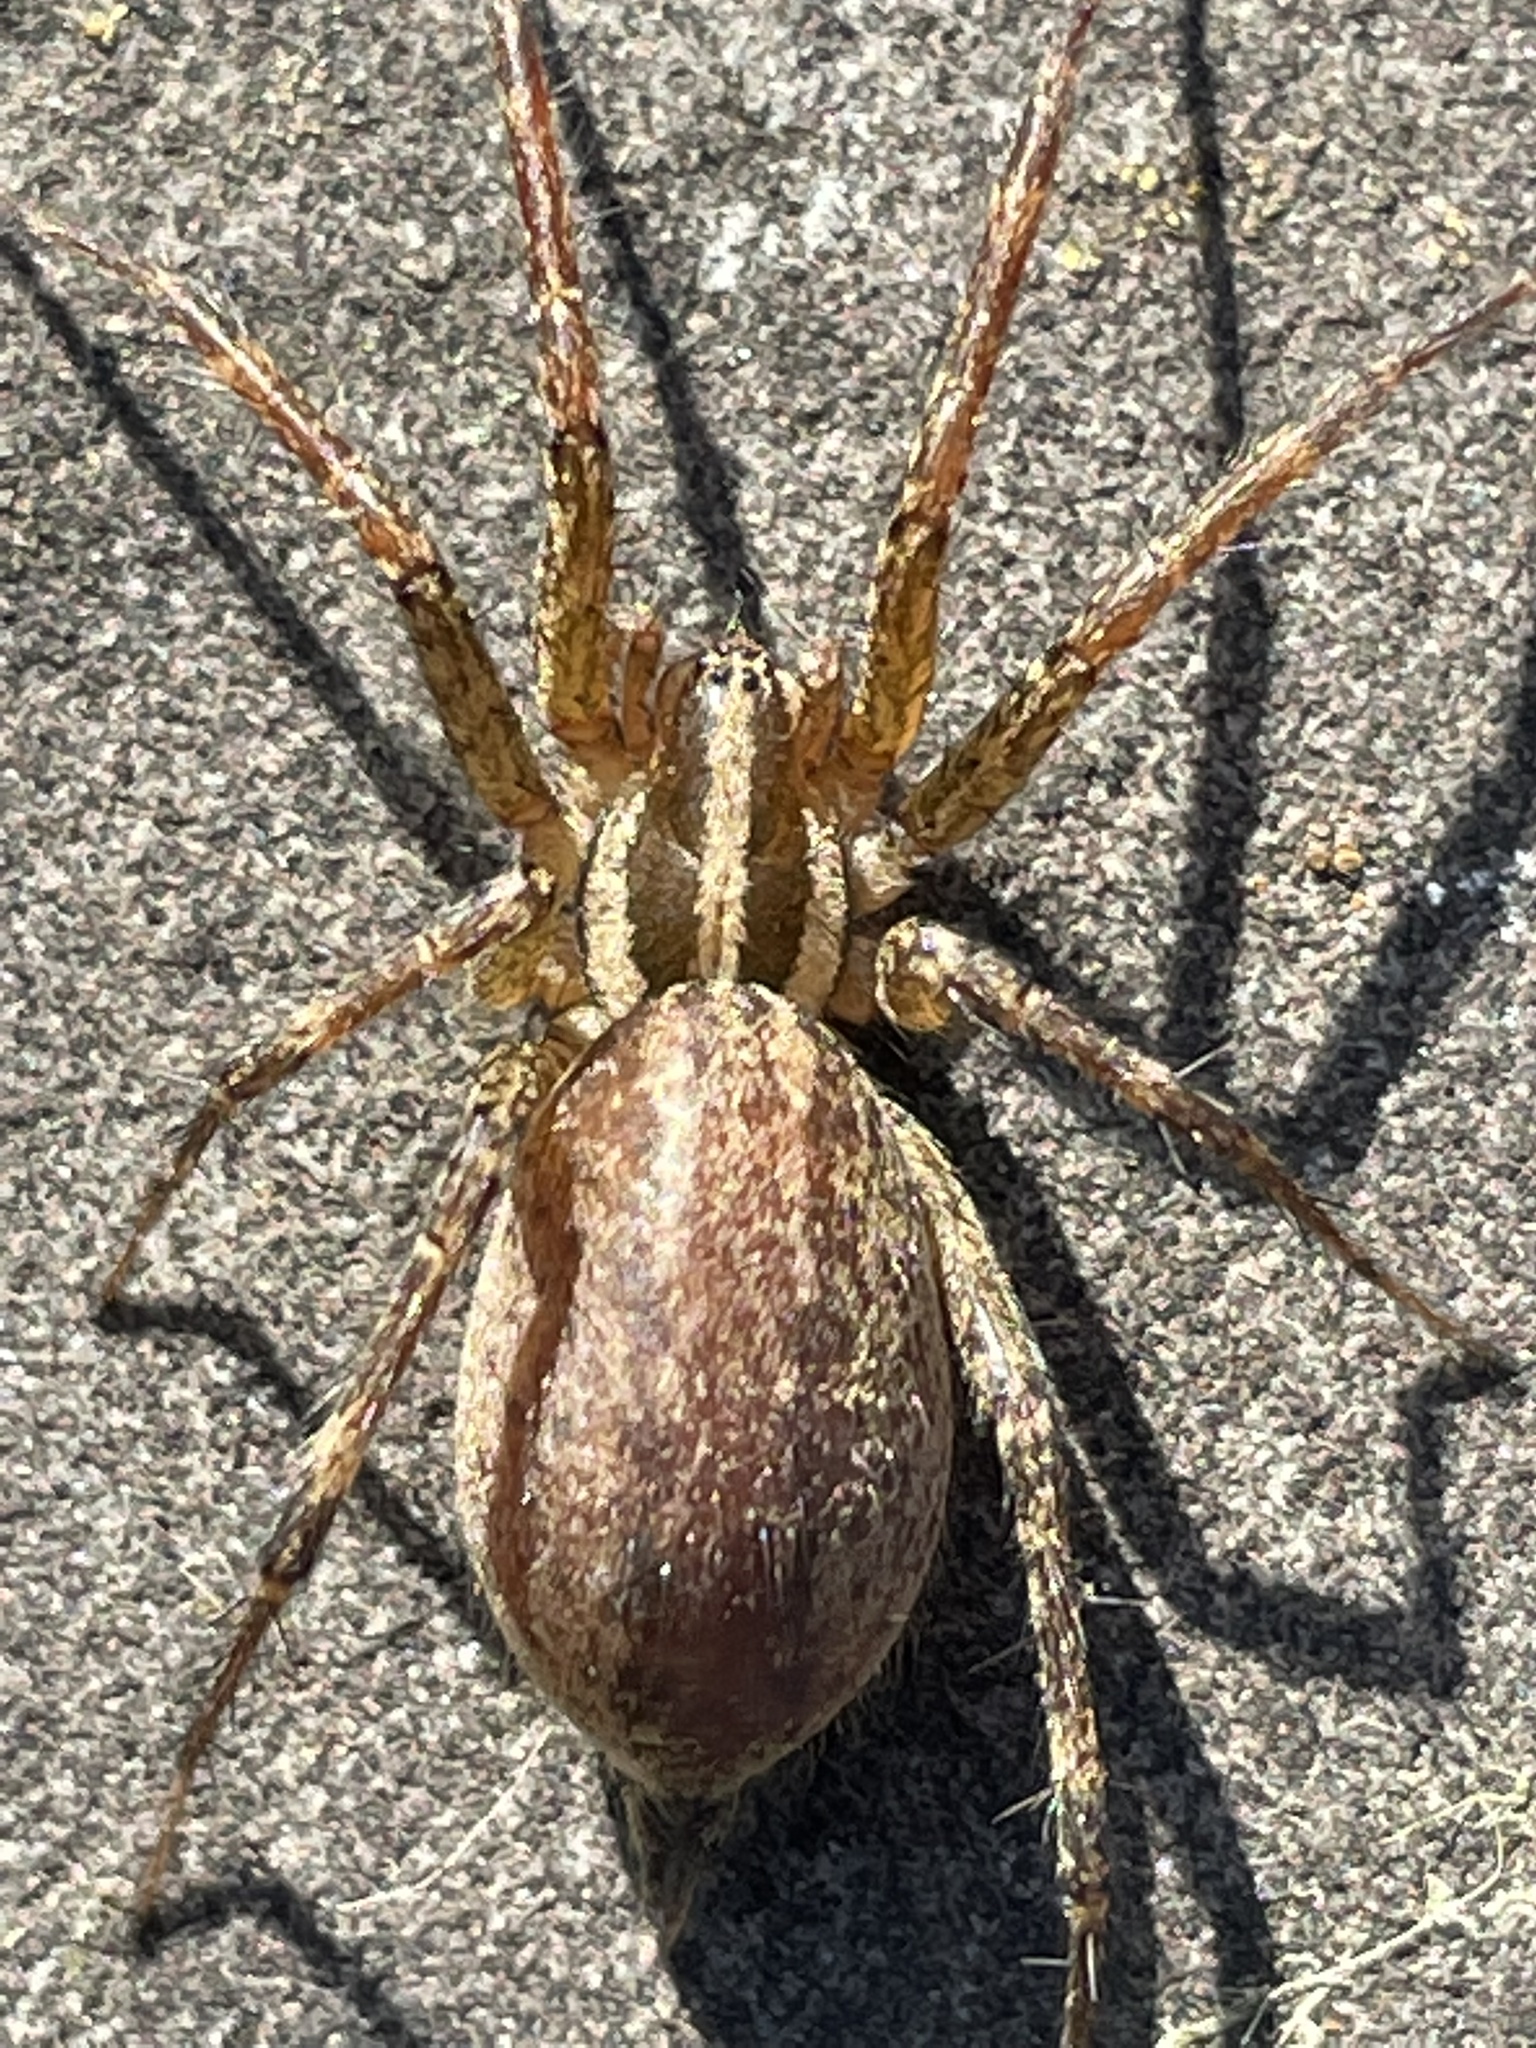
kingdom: Animalia
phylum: Arthropoda
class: Arachnida
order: Araneae
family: Agelenidae
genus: Agelenopsis
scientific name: Agelenopsis
